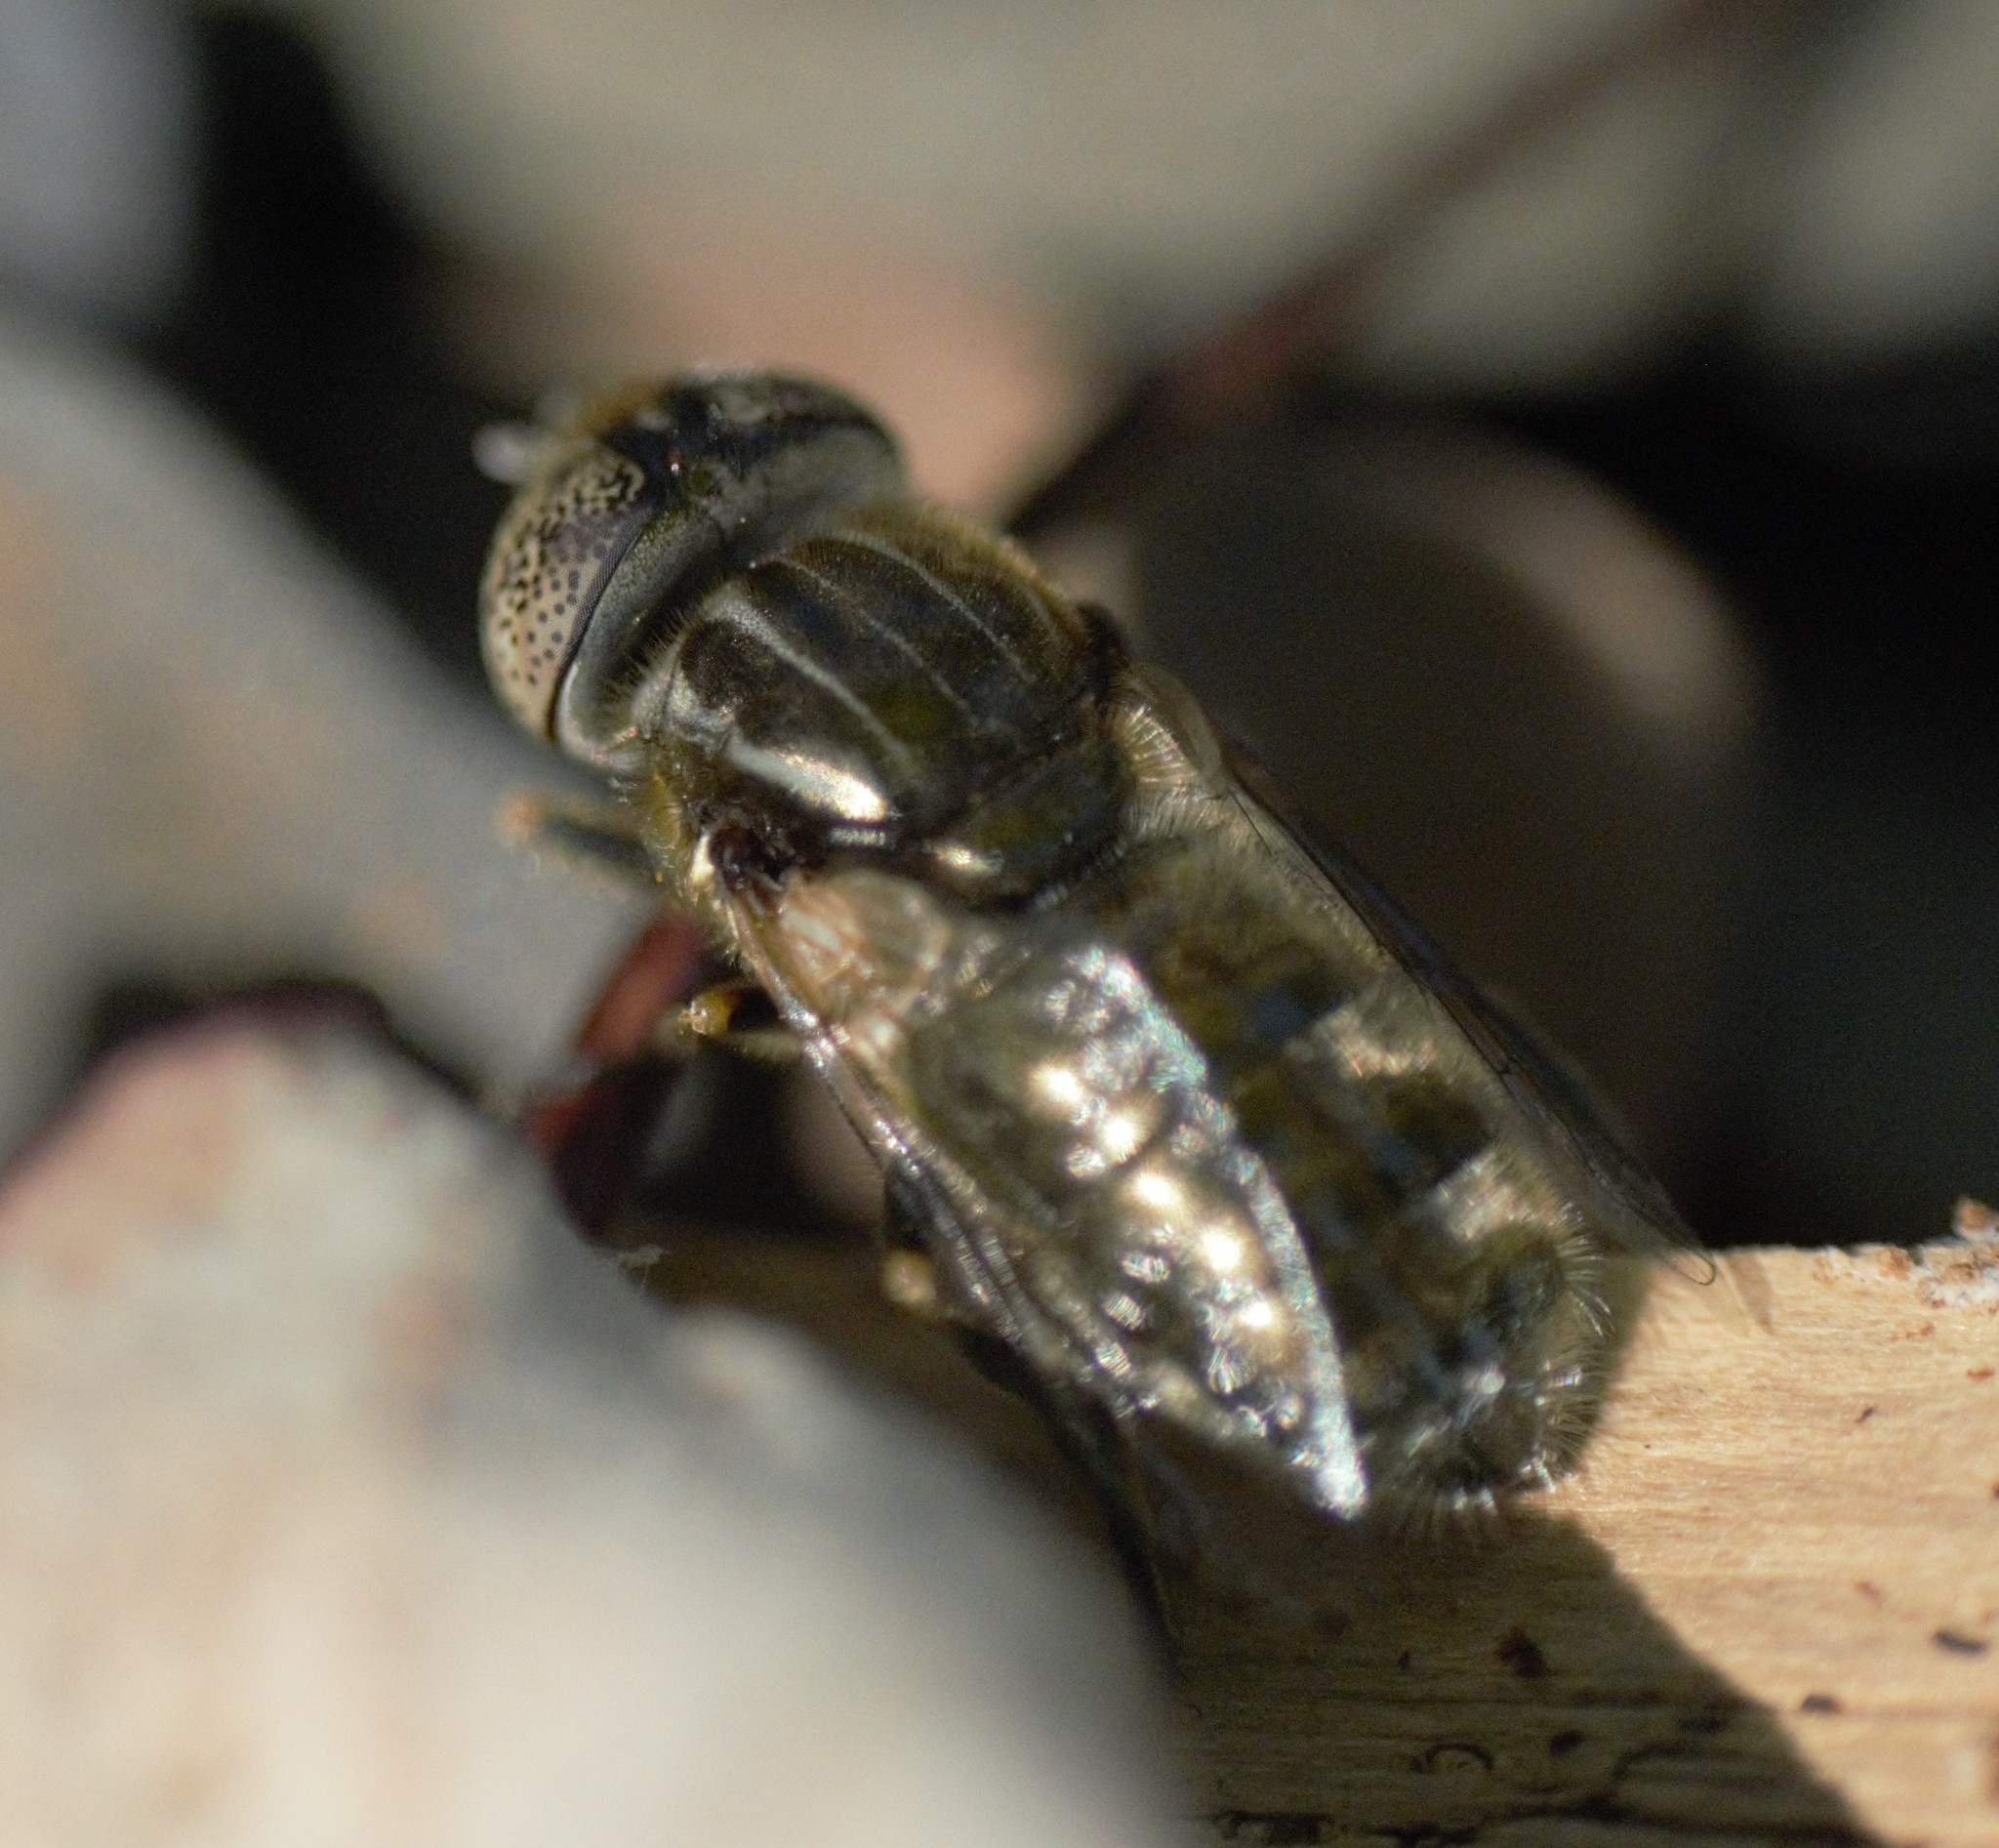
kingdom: Animalia
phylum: Arthropoda
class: Insecta
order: Diptera
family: Syrphidae
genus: Eristalinus
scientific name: Eristalinus aeneus
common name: Syrphid fly
